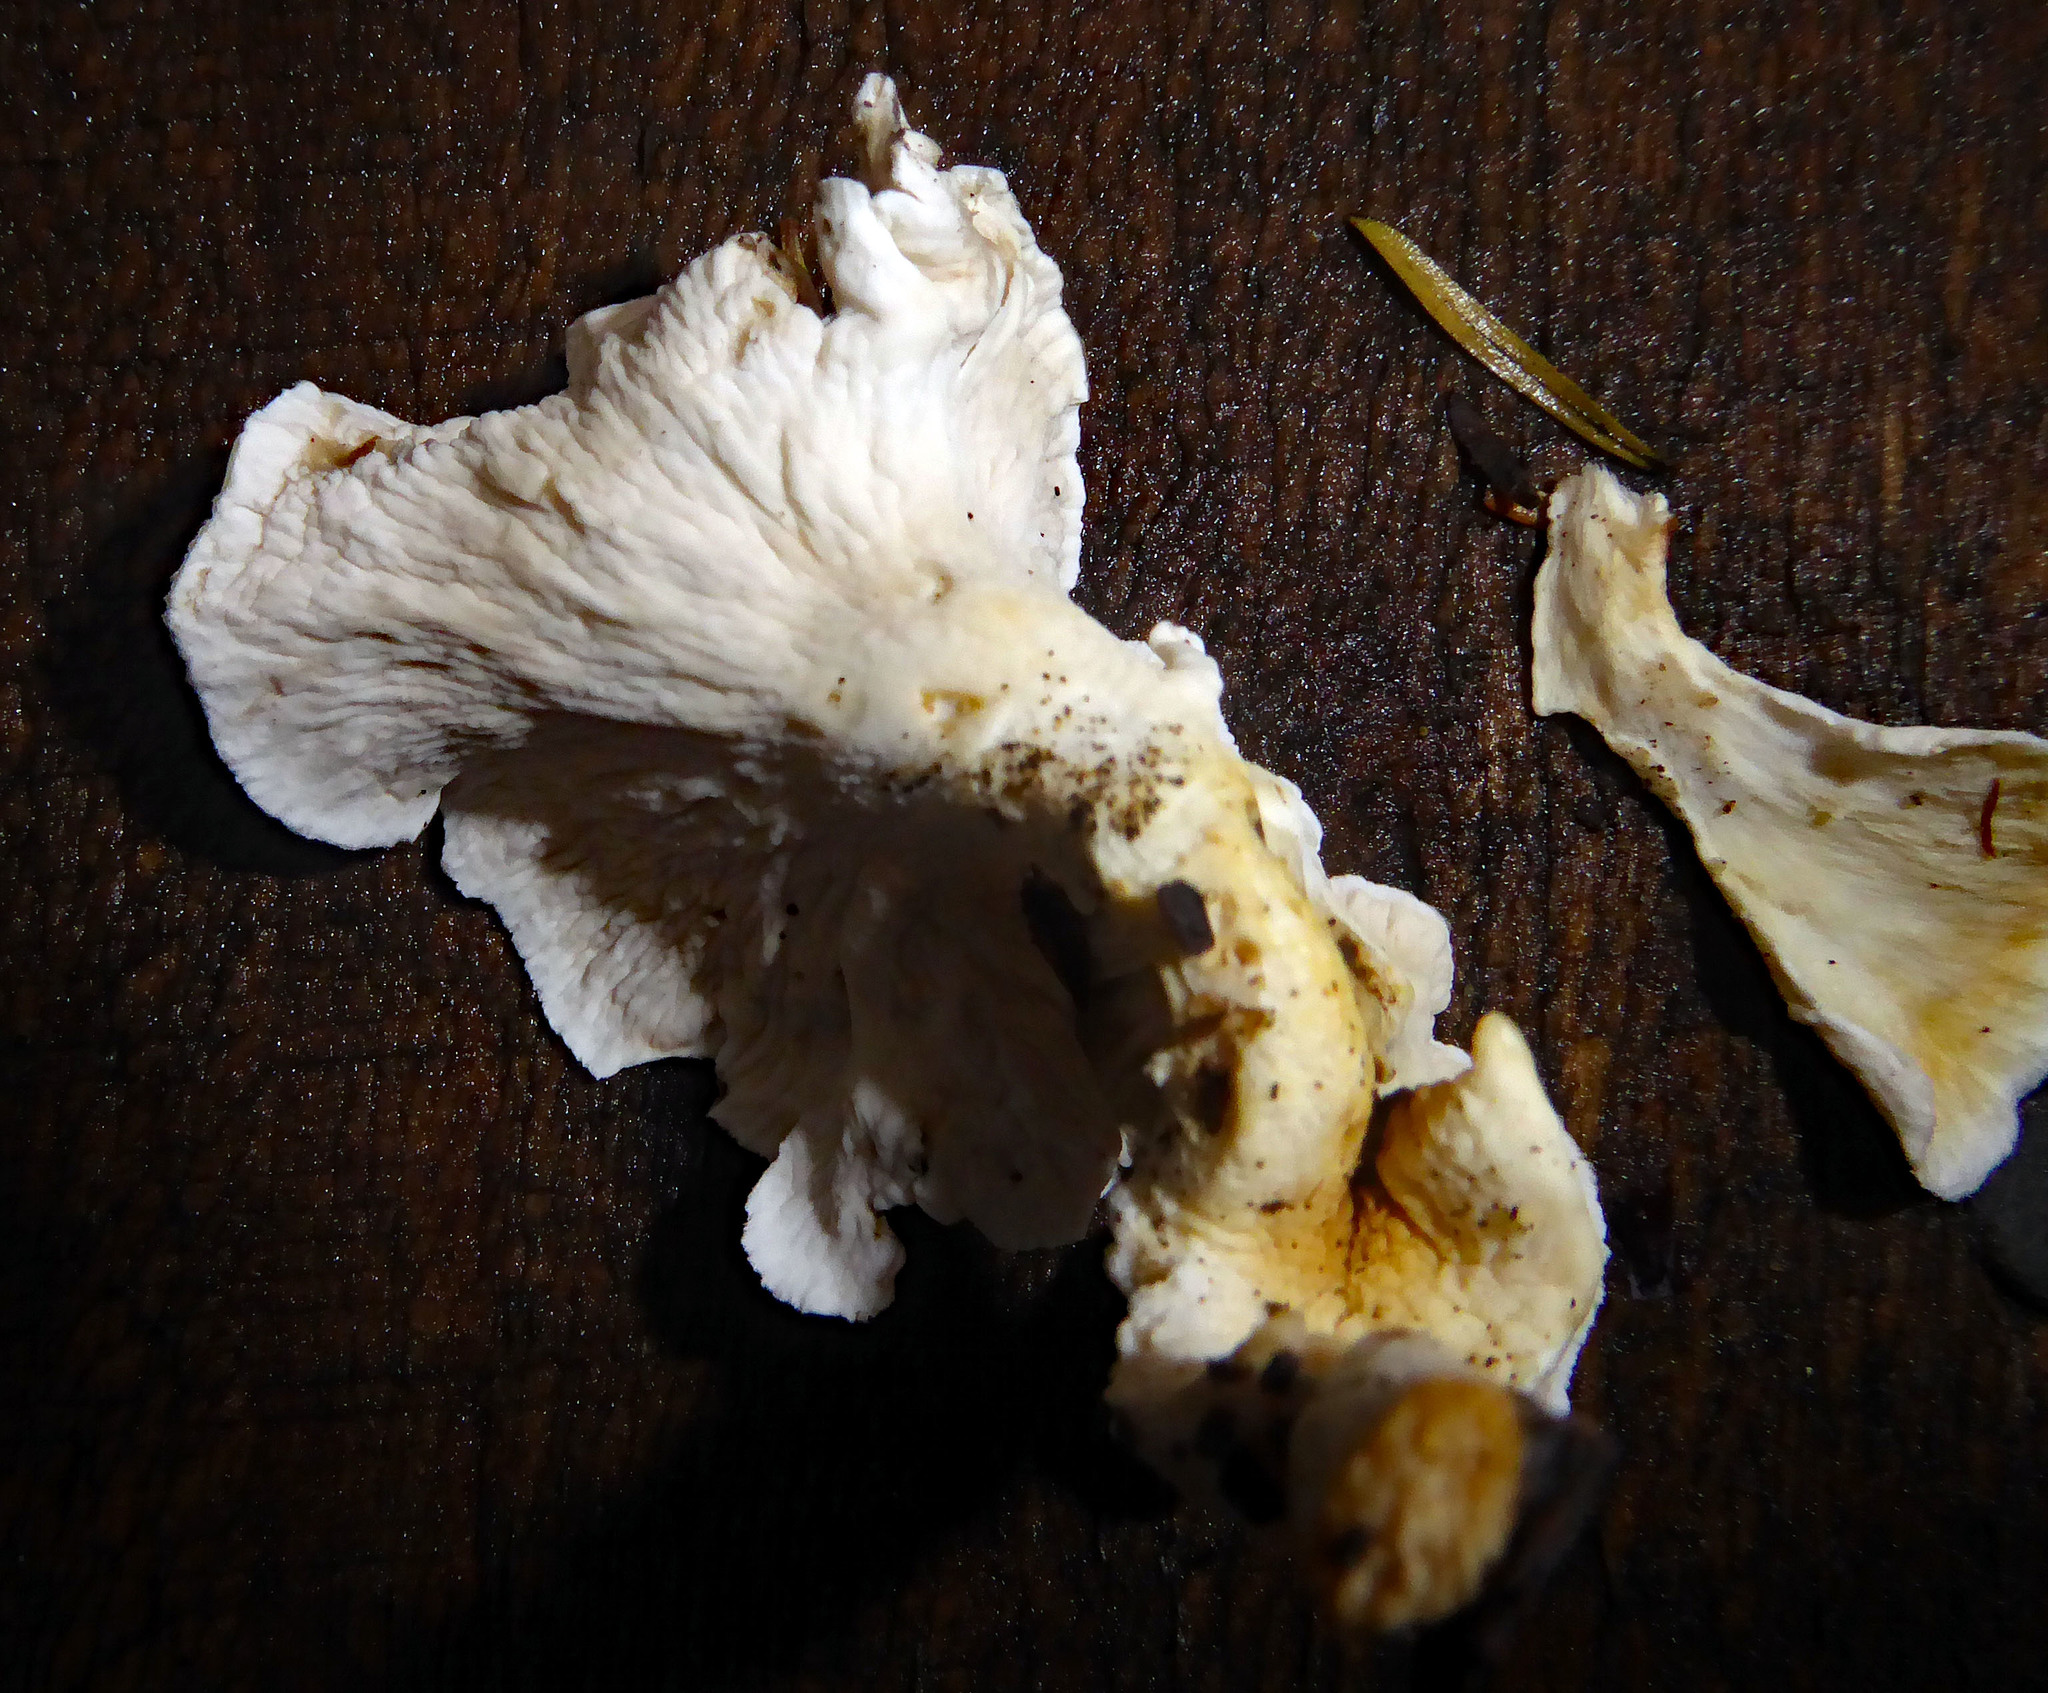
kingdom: Fungi
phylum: Basidiomycota
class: Agaricomycetes
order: Amylocorticiales
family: Amylocorticiaceae
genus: Podoserpula
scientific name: Podoserpula
